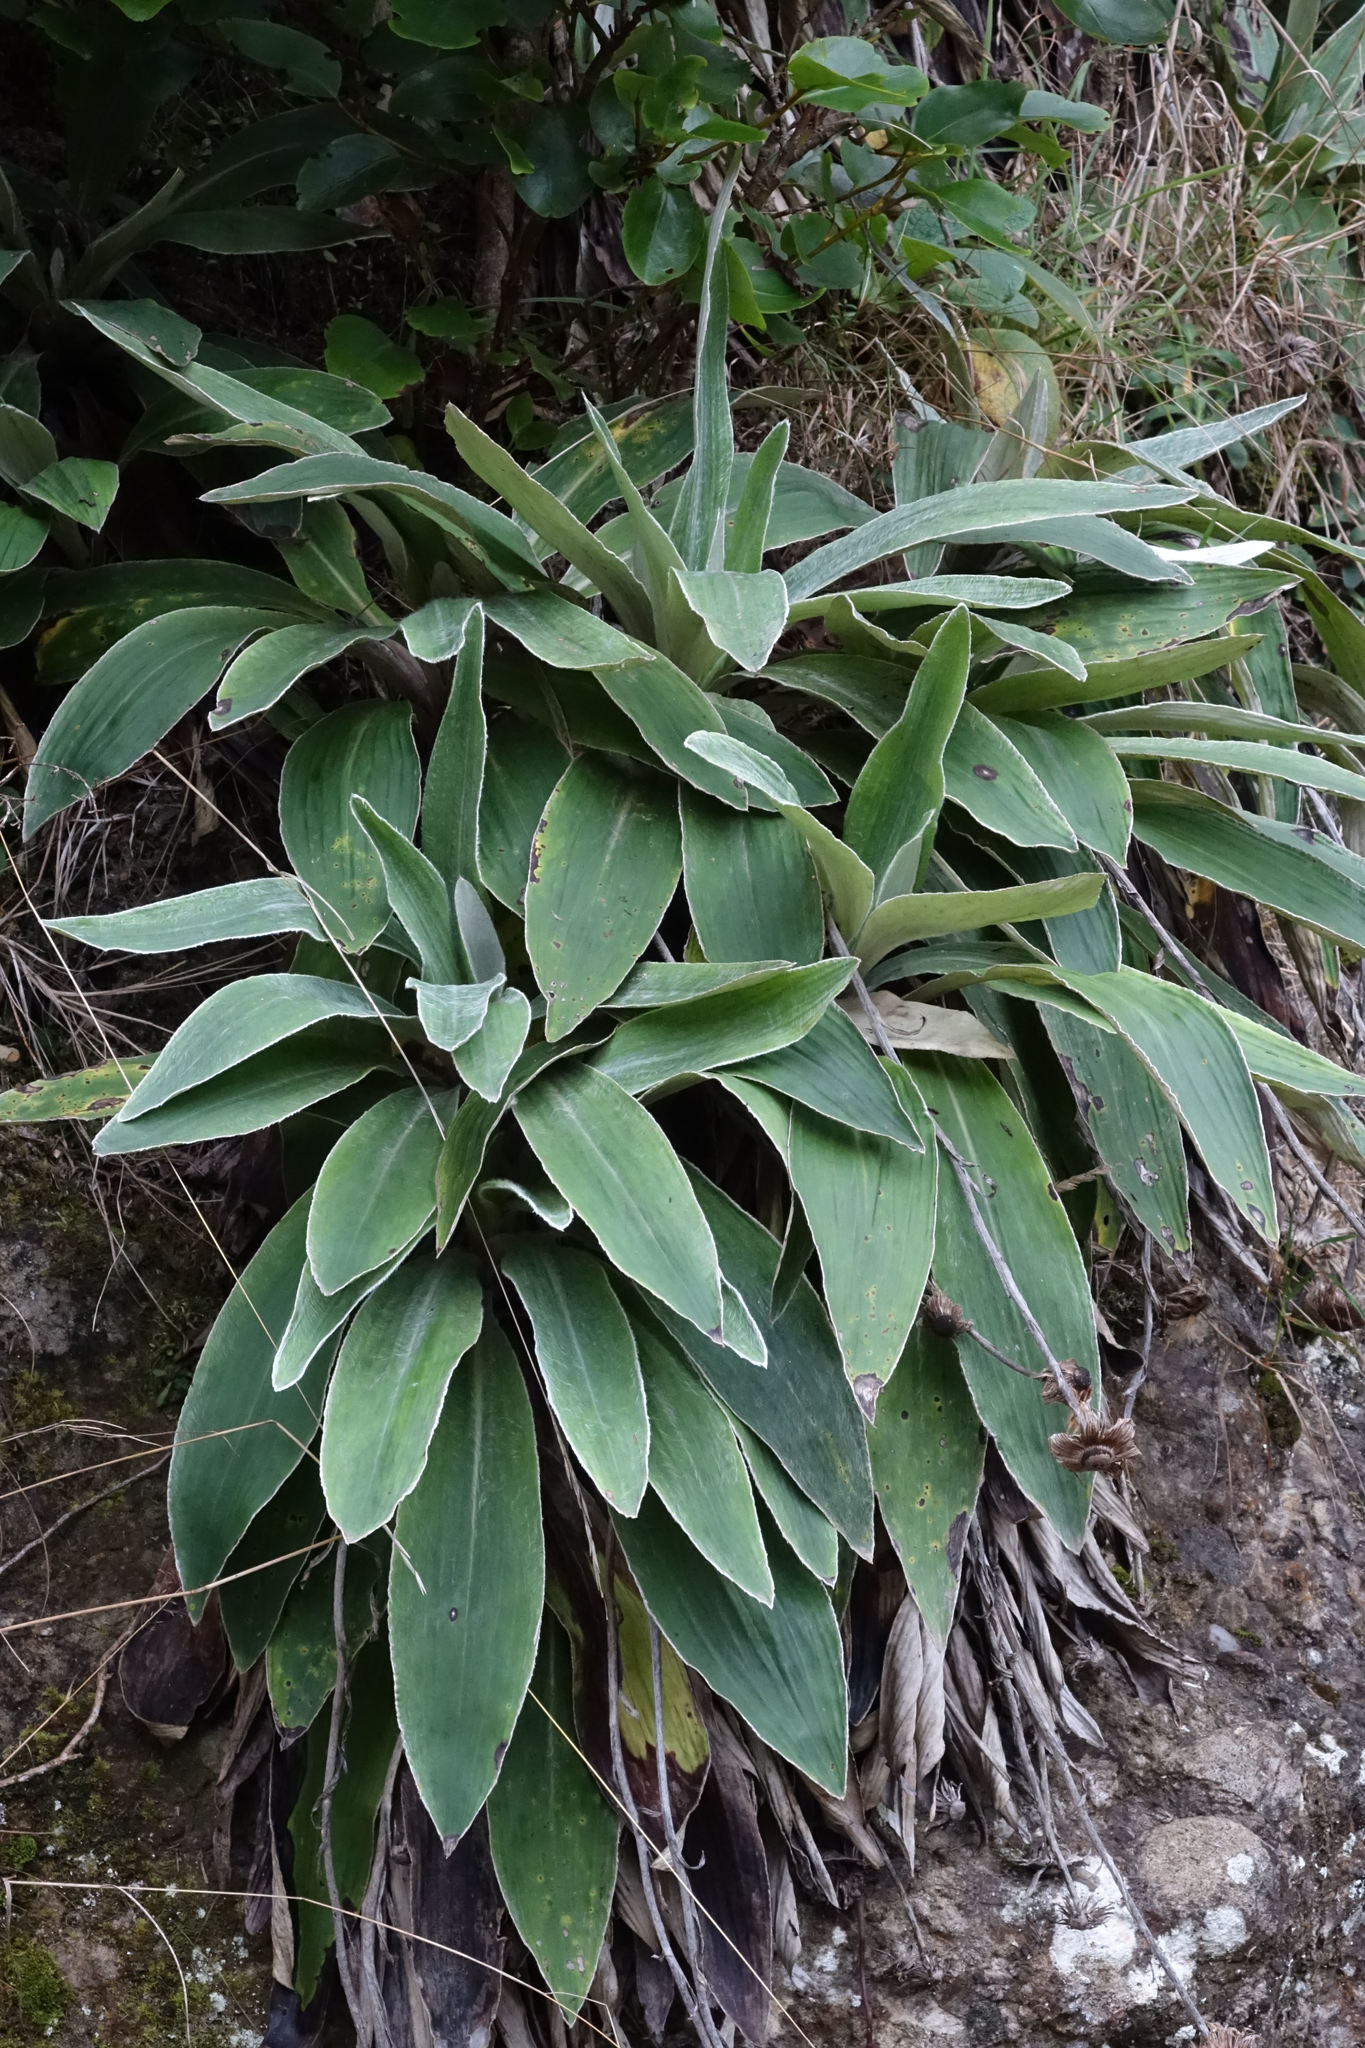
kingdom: Plantae
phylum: Tracheophyta
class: Magnoliopsida
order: Asterales
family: Asteraceae
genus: Celmisia
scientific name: Celmisia hookeri
